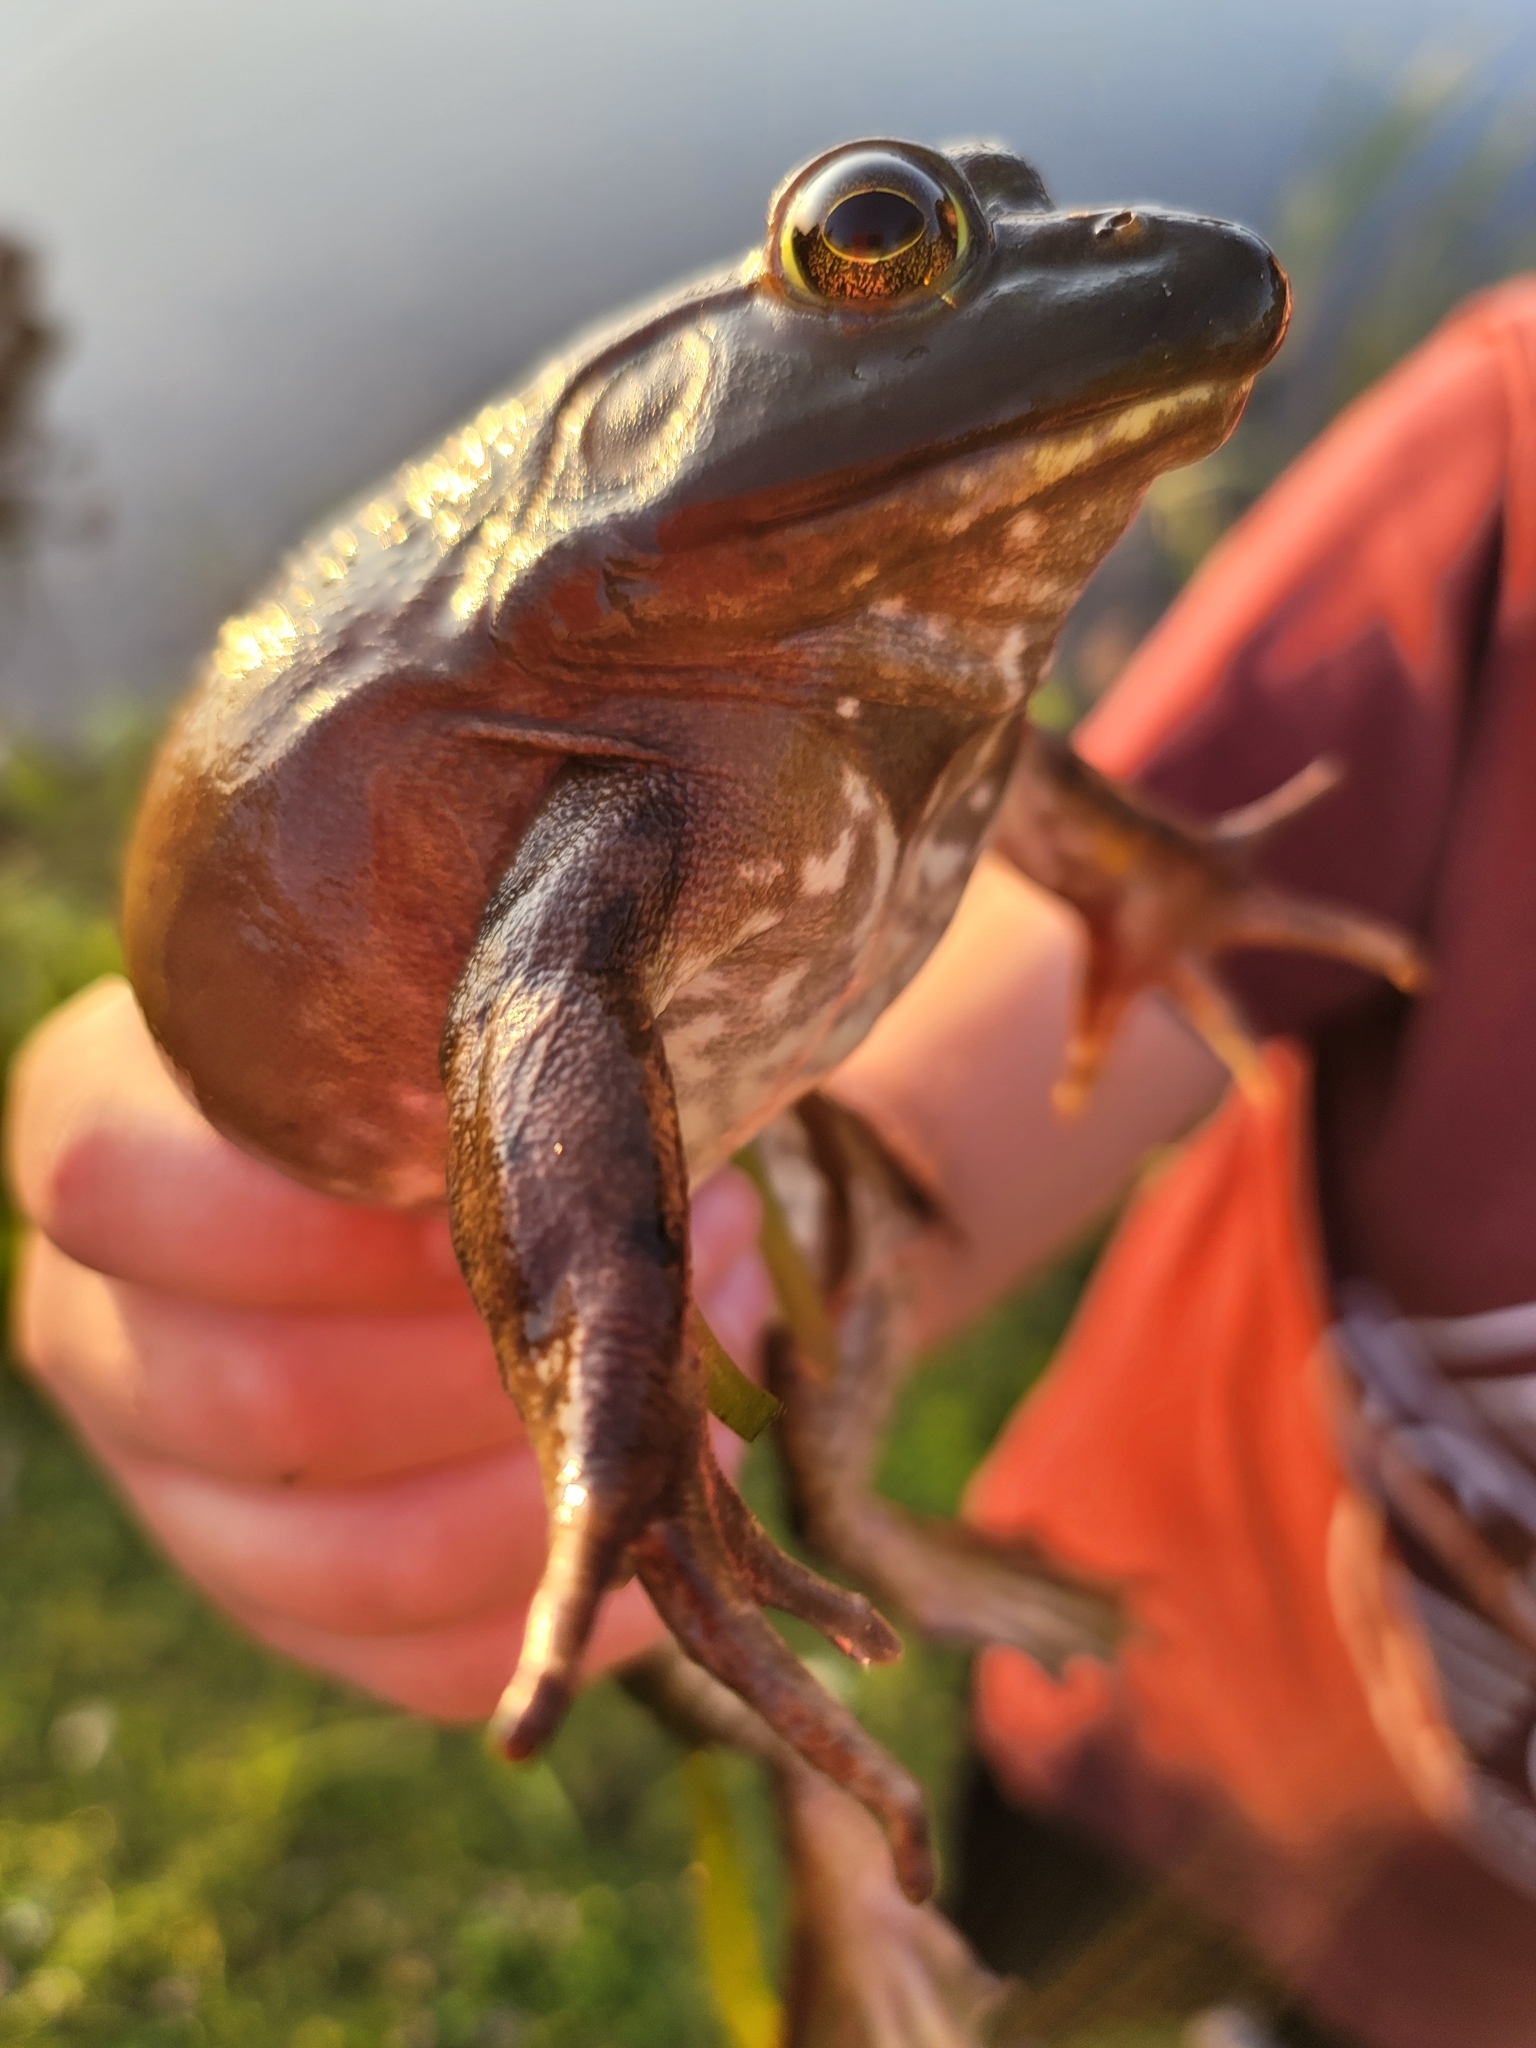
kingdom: Animalia
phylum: Chordata
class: Amphibia
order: Anura
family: Ranidae
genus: Lithobates
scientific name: Lithobates catesbeianus
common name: American bullfrog
